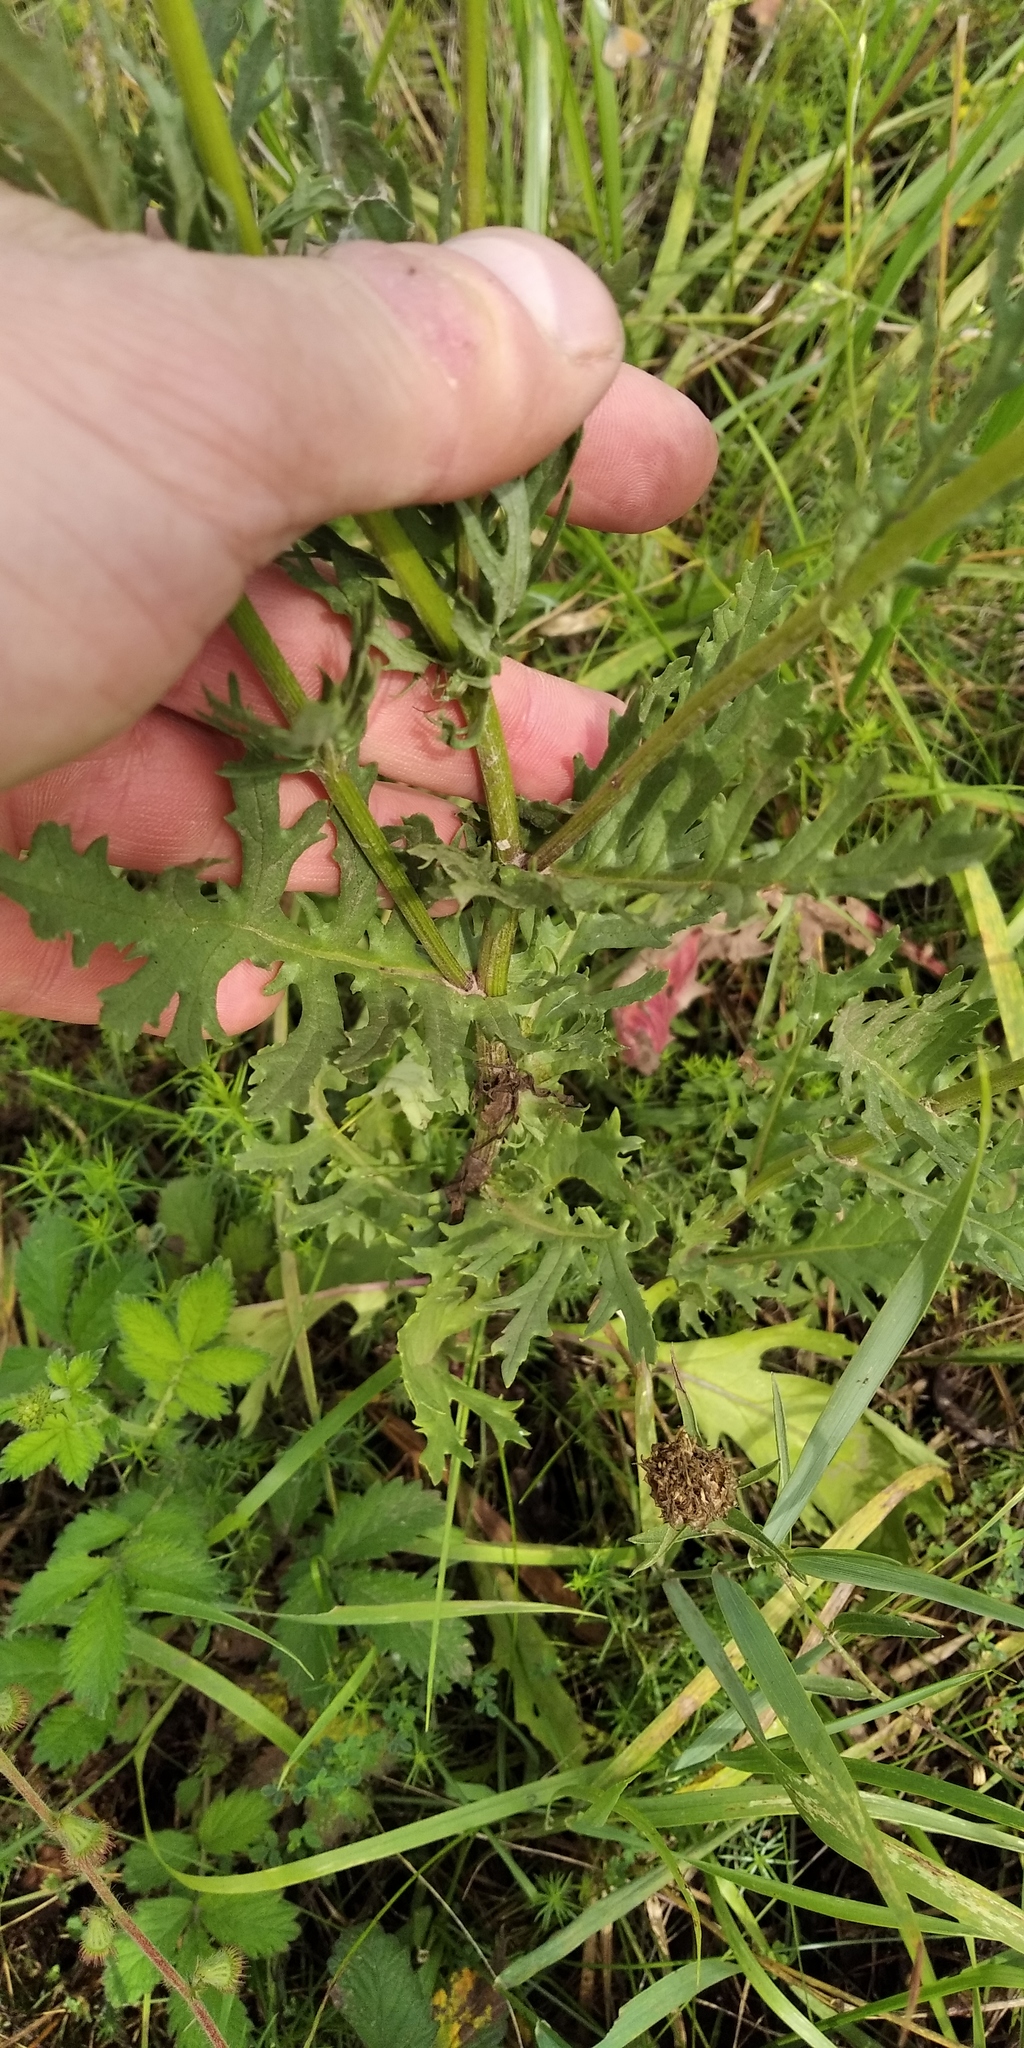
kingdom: Plantae
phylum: Tracheophyta
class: Magnoliopsida
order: Asterales
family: Asteraceae
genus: Jacobaea
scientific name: Jacobaea vulgaris
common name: Stinking willie
